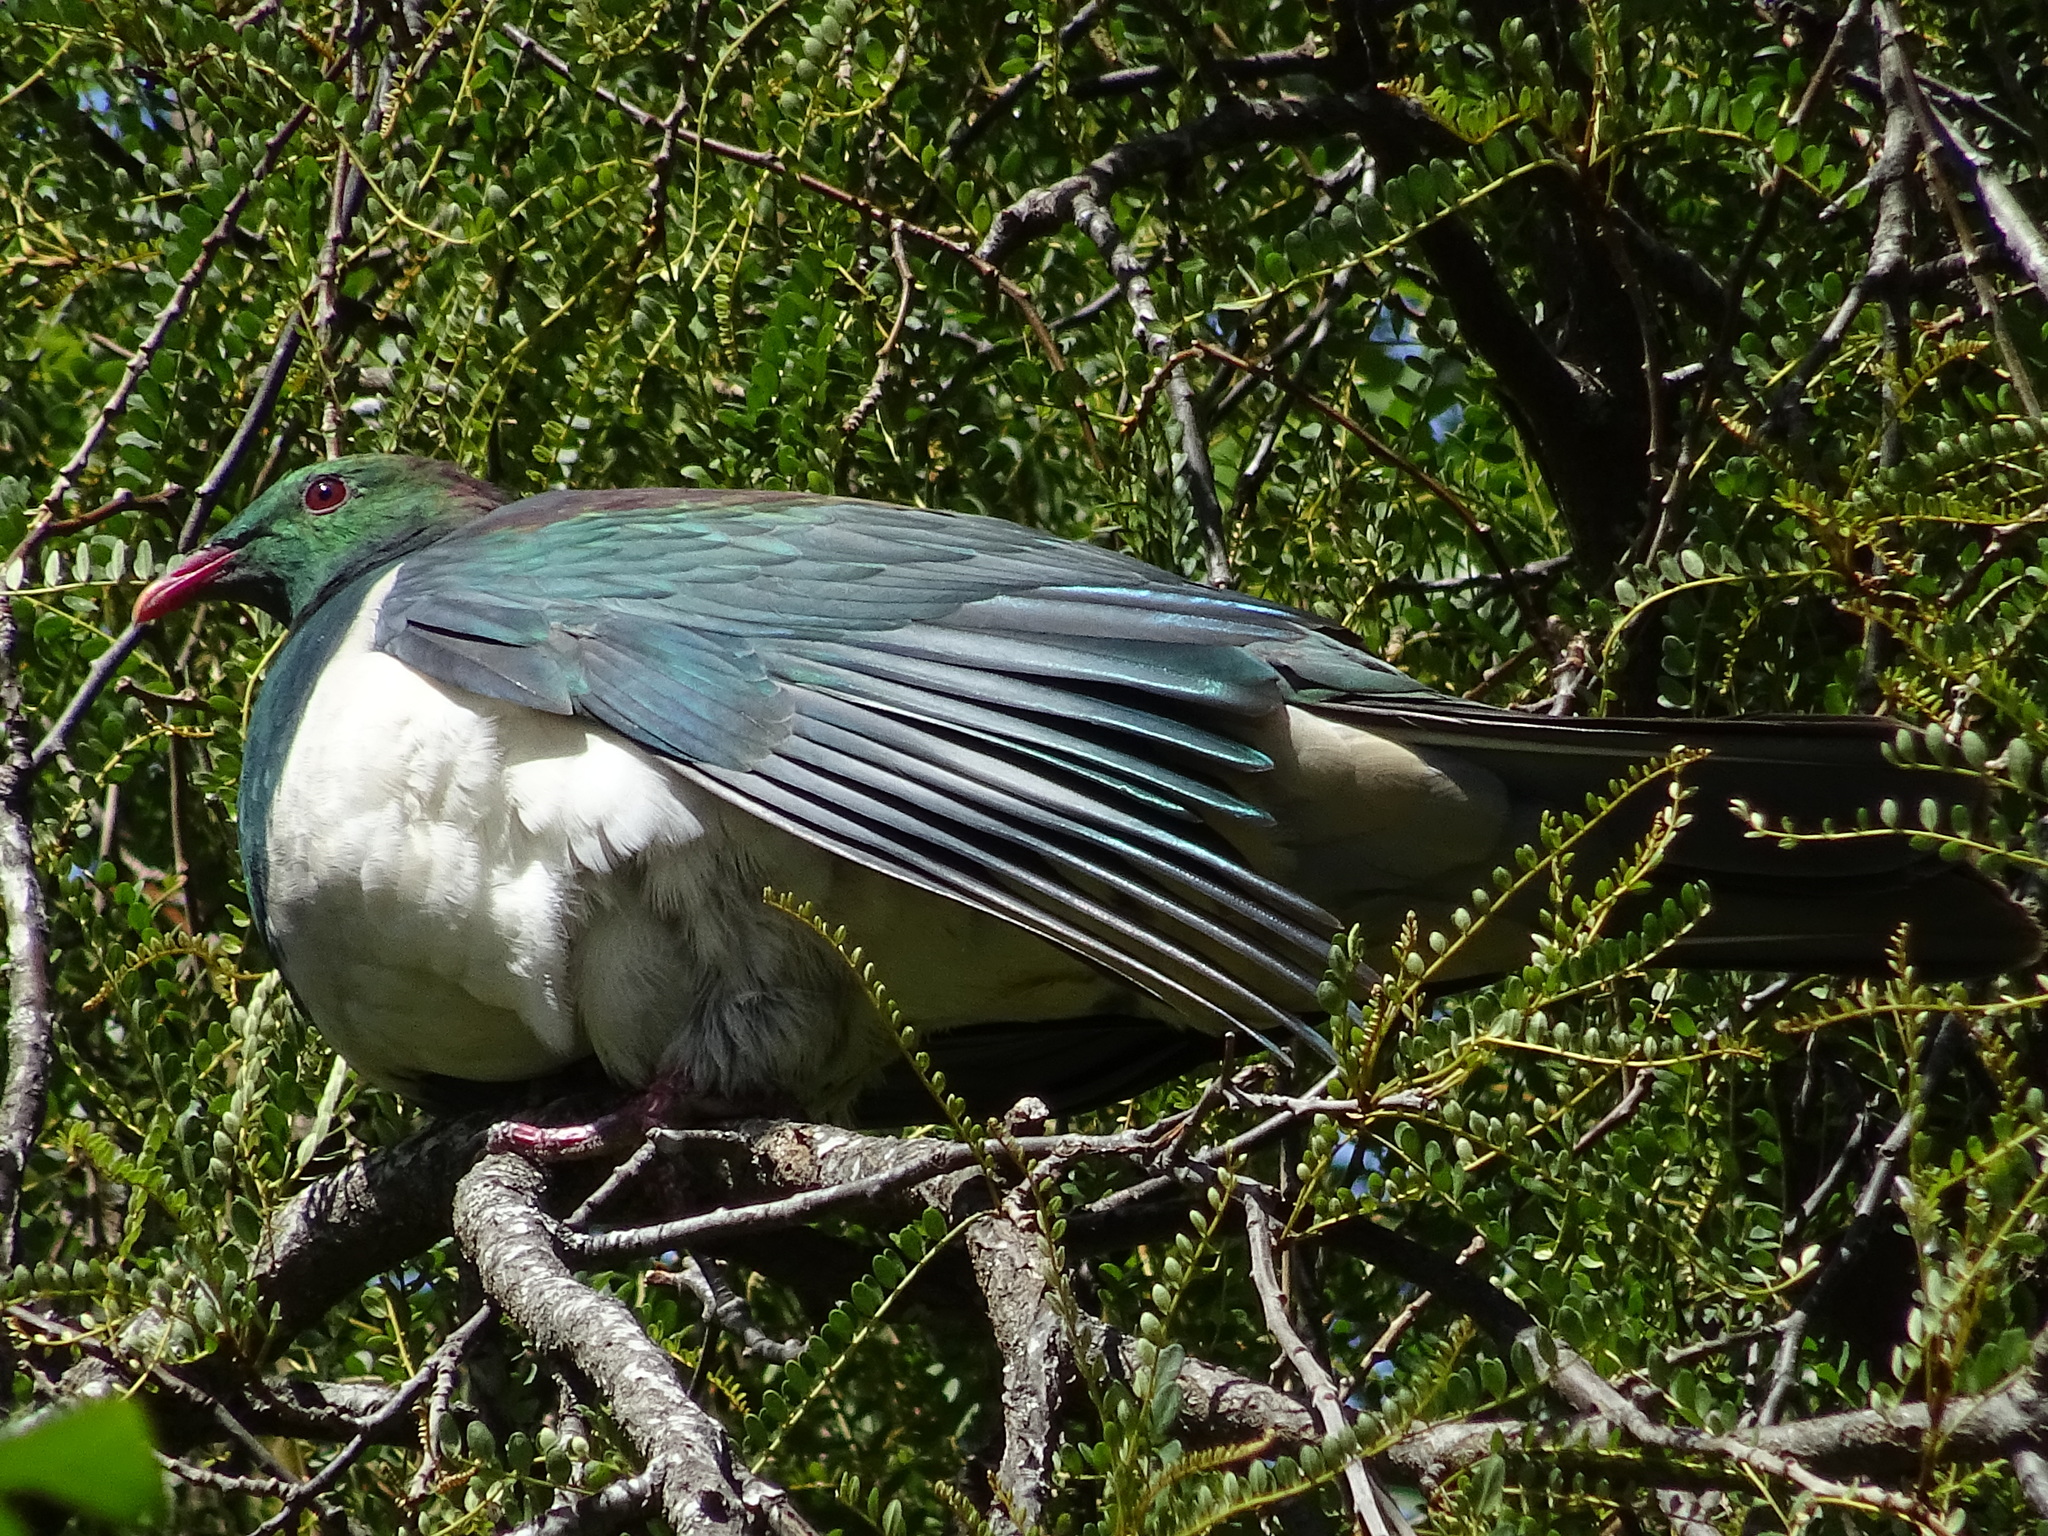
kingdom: Animalia
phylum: Chordata
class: Aves
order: Columbiformes
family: Columbidae
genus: Hemiphaga
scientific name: Hemiphaga novaeseelandiae
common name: New zealand pigeon
